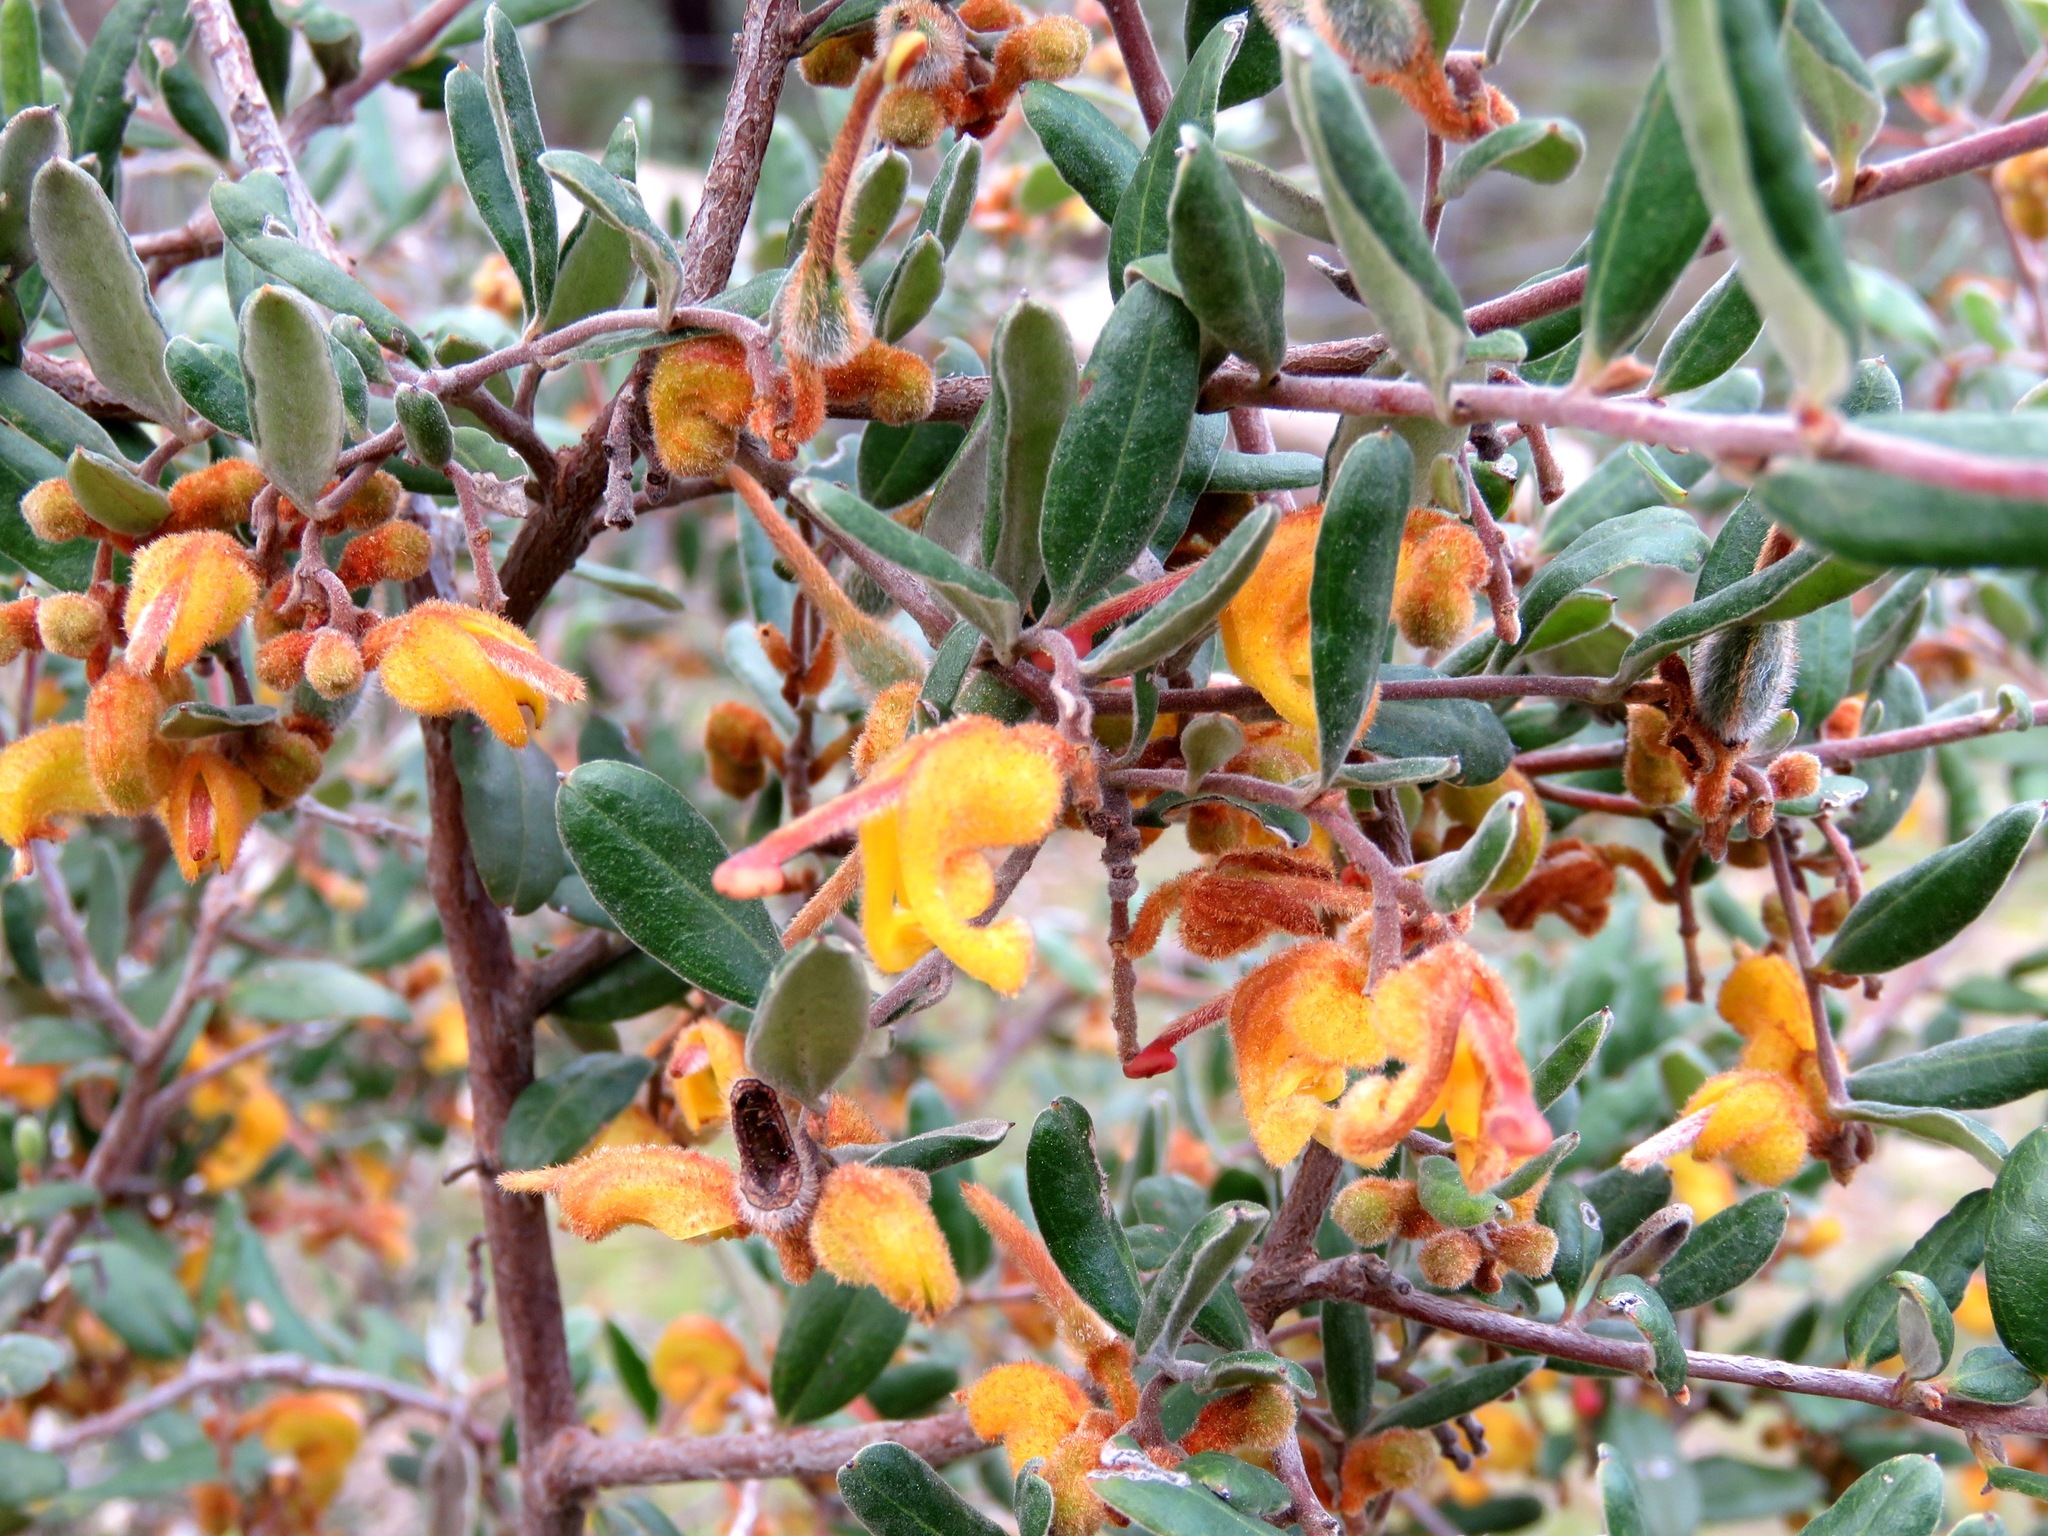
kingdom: Plantae
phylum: Tracheophyta
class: Magnoliopsida
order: Proteales
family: Proteaceae
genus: Grevillea
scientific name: Grevillea chrysophaea
